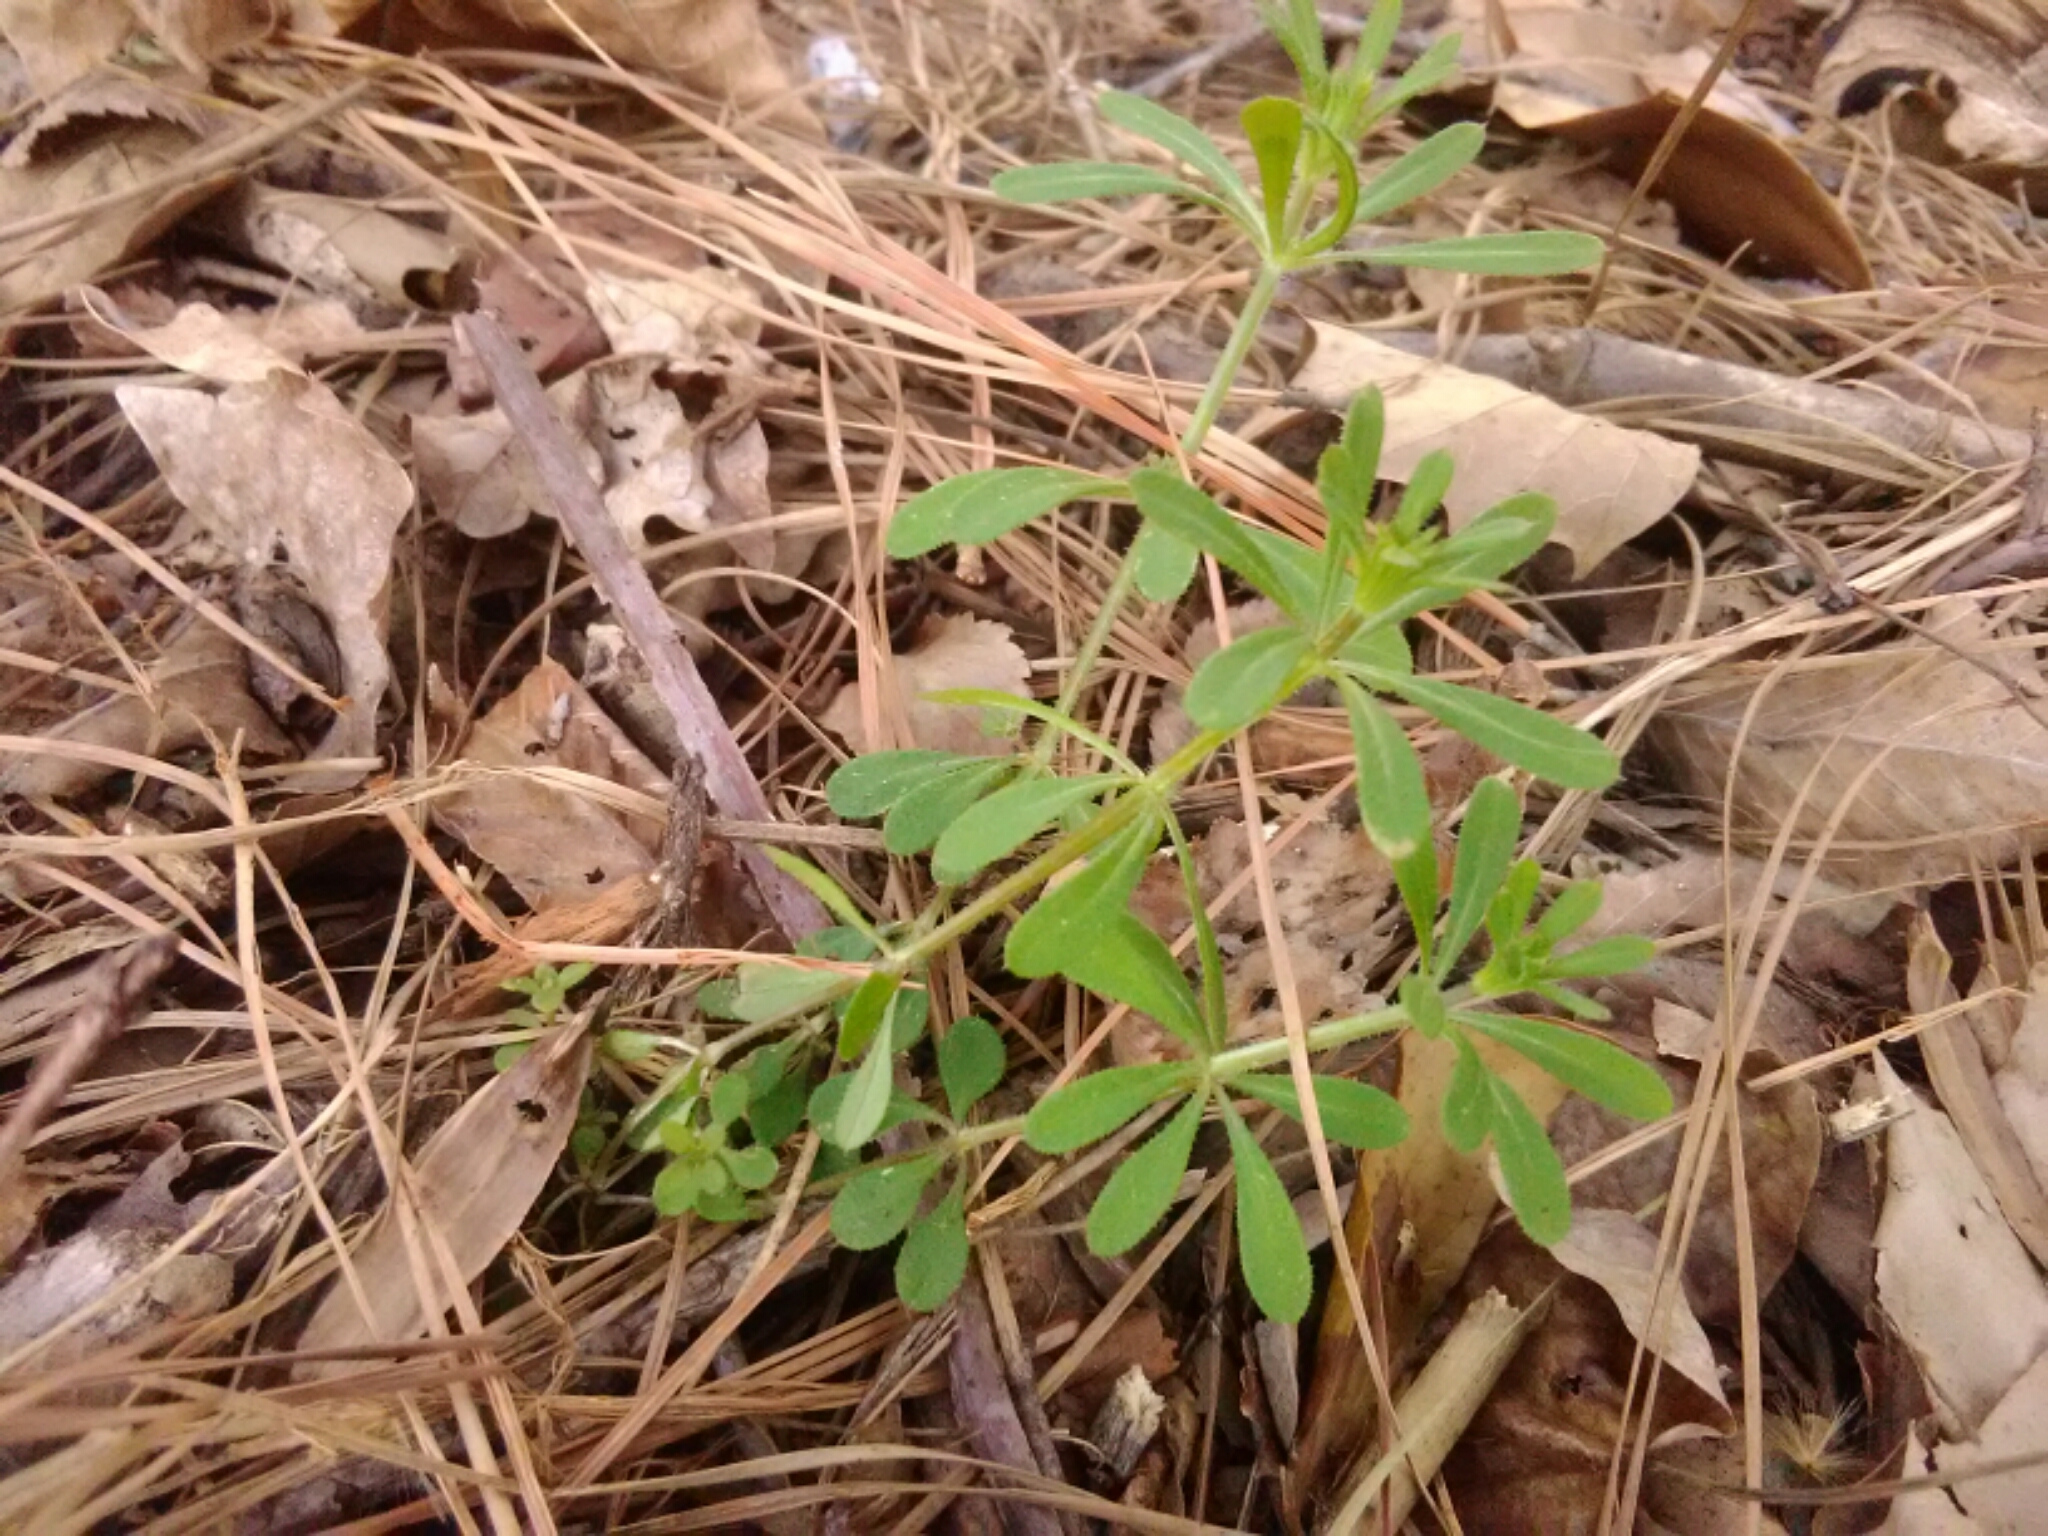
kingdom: Plantae
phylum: Tracheophyta
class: Magnoliopsida
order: Gentianales
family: Rubiaceae
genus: Galium
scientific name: Galium aparine
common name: Cleavers
